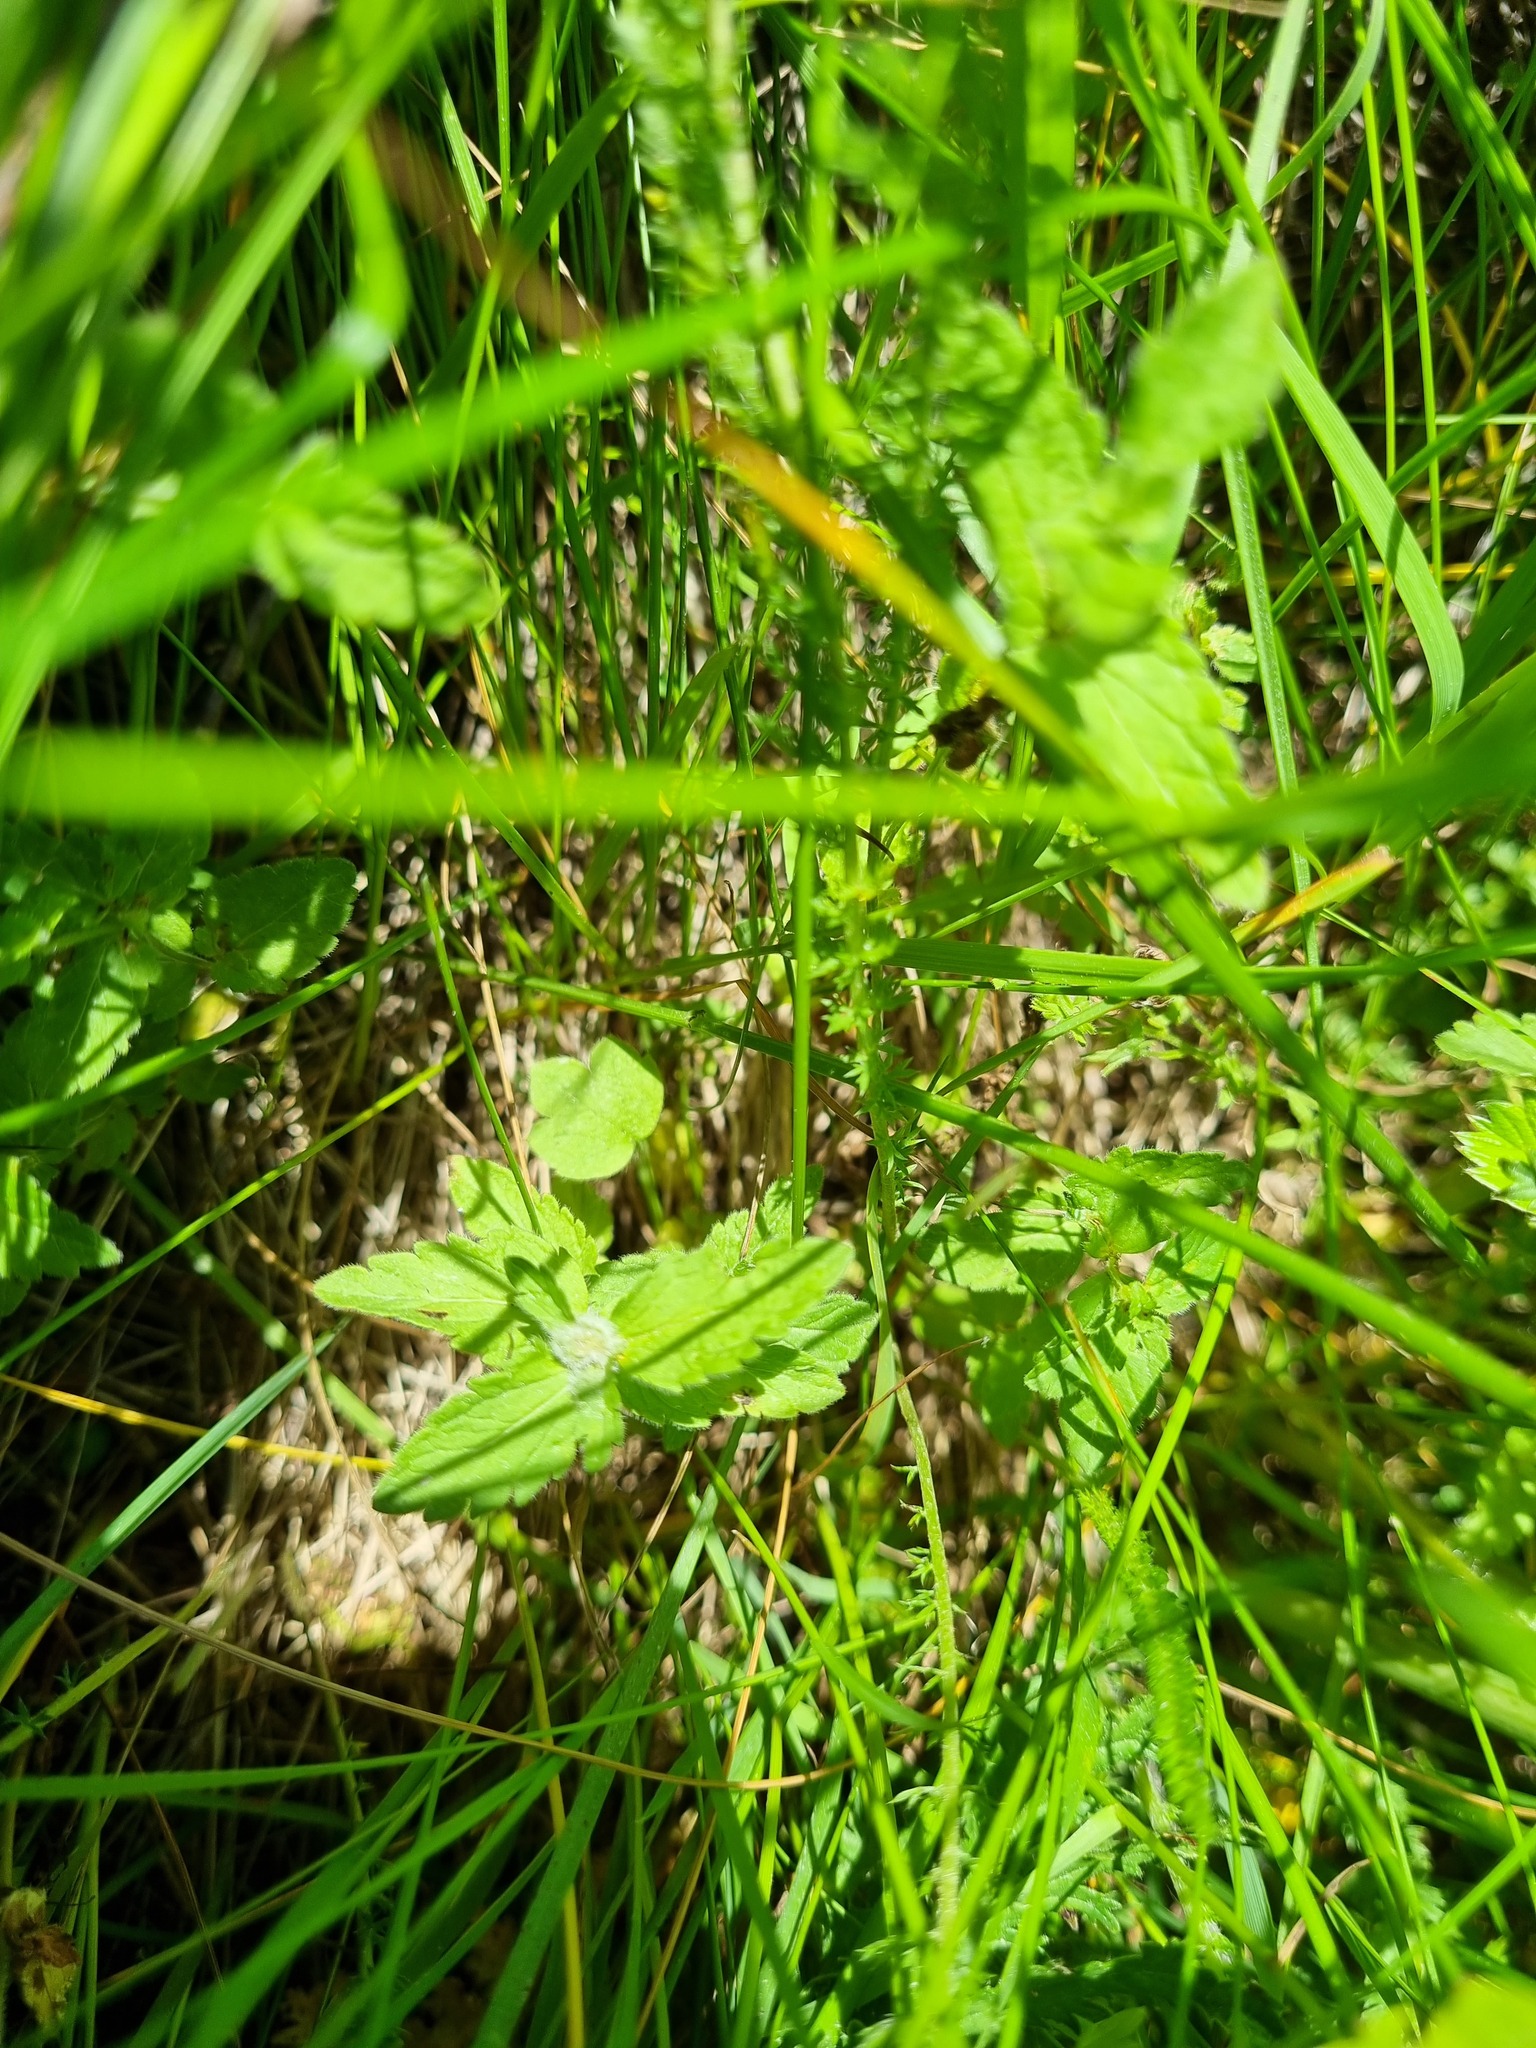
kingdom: Plantae
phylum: Tracheophyta
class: Magnoliopsida
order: Lamiales
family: Plantaginaceae
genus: Veronica
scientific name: Veronica chamaedrys
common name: Germander speedwell
